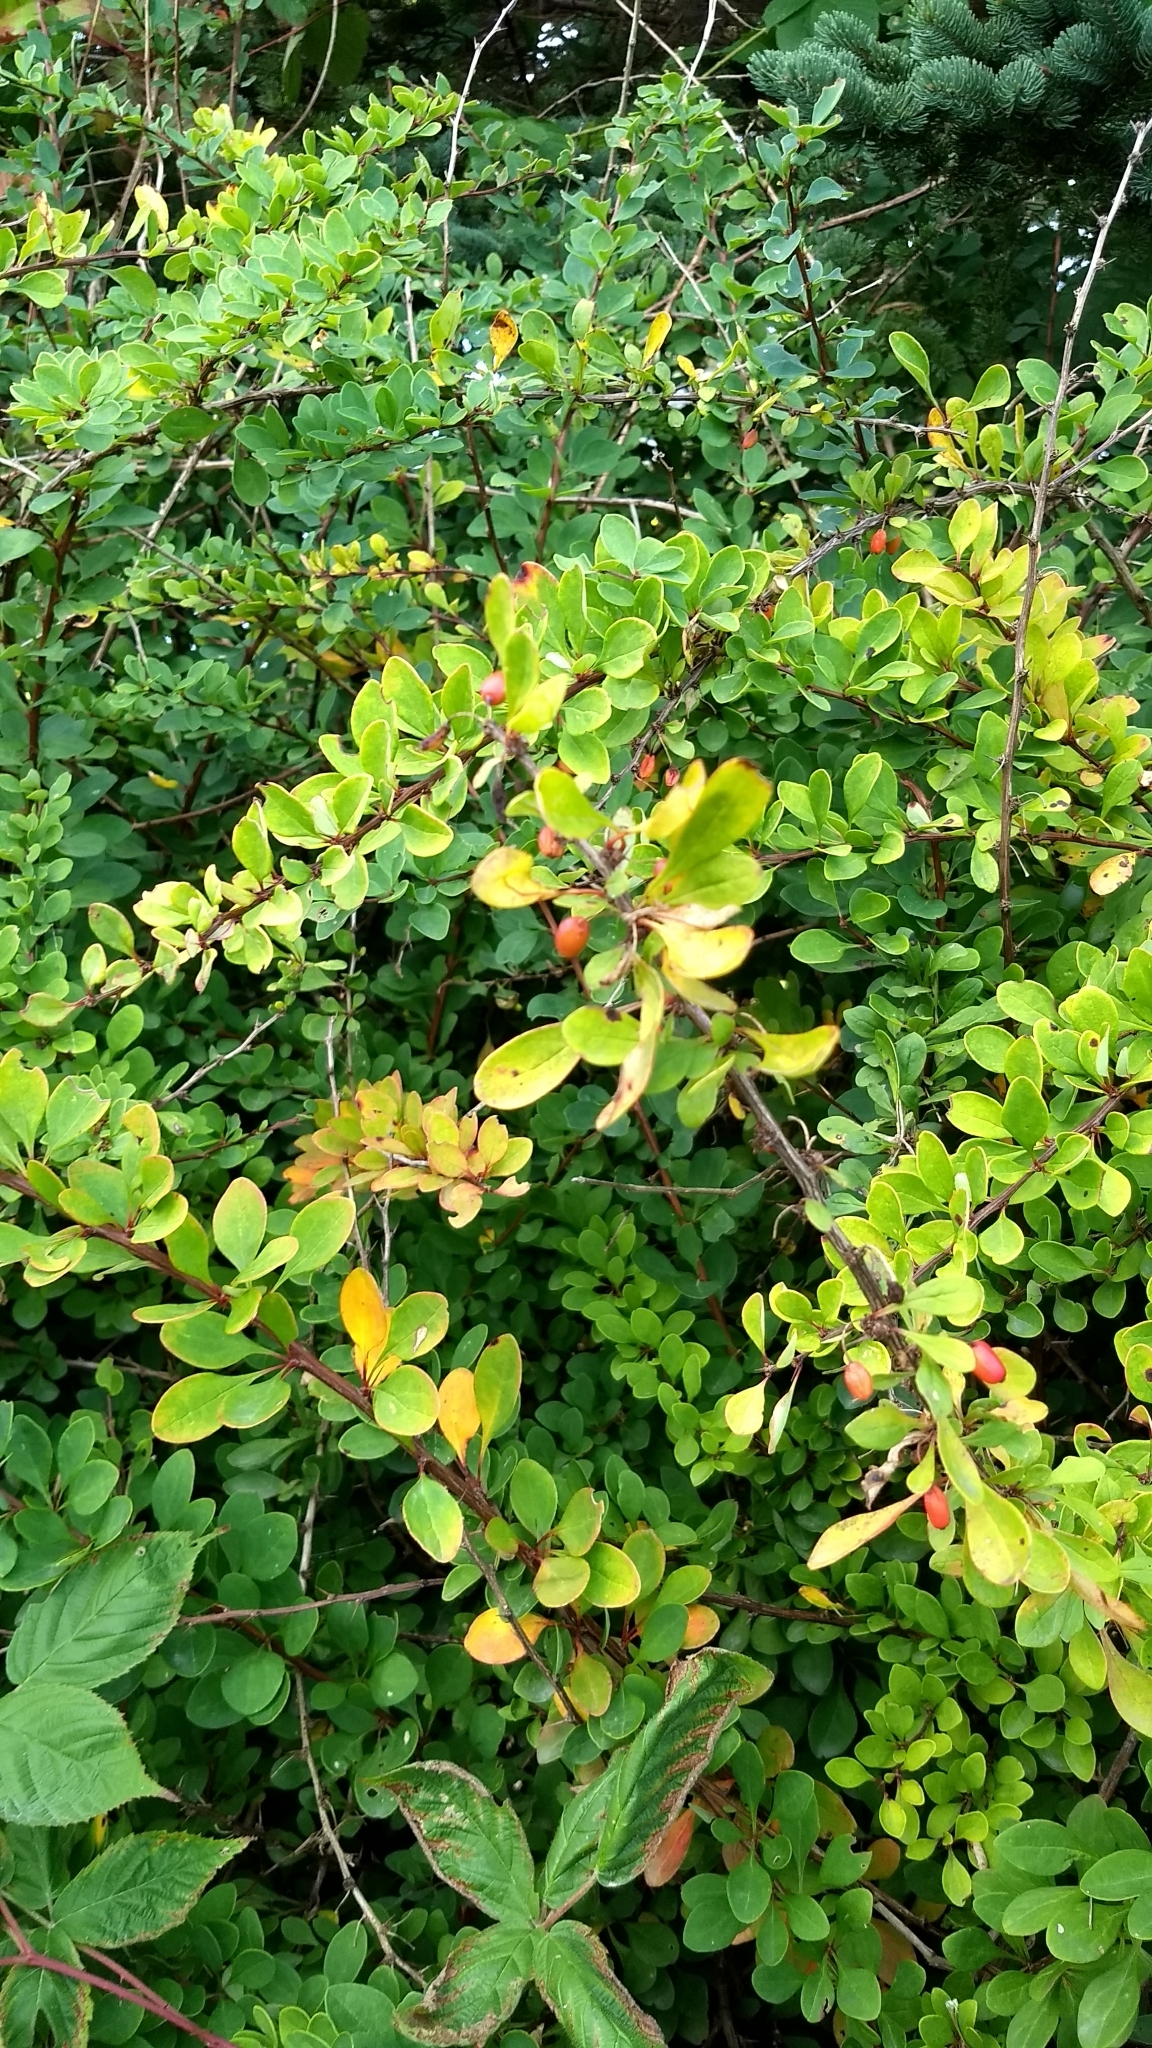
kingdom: Plantae
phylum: Tracheophyta
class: Magnoliopsida
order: Ranunculales
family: Berberidaceae
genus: Berberis
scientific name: Berberis thunbergii
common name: Japanese barberry
